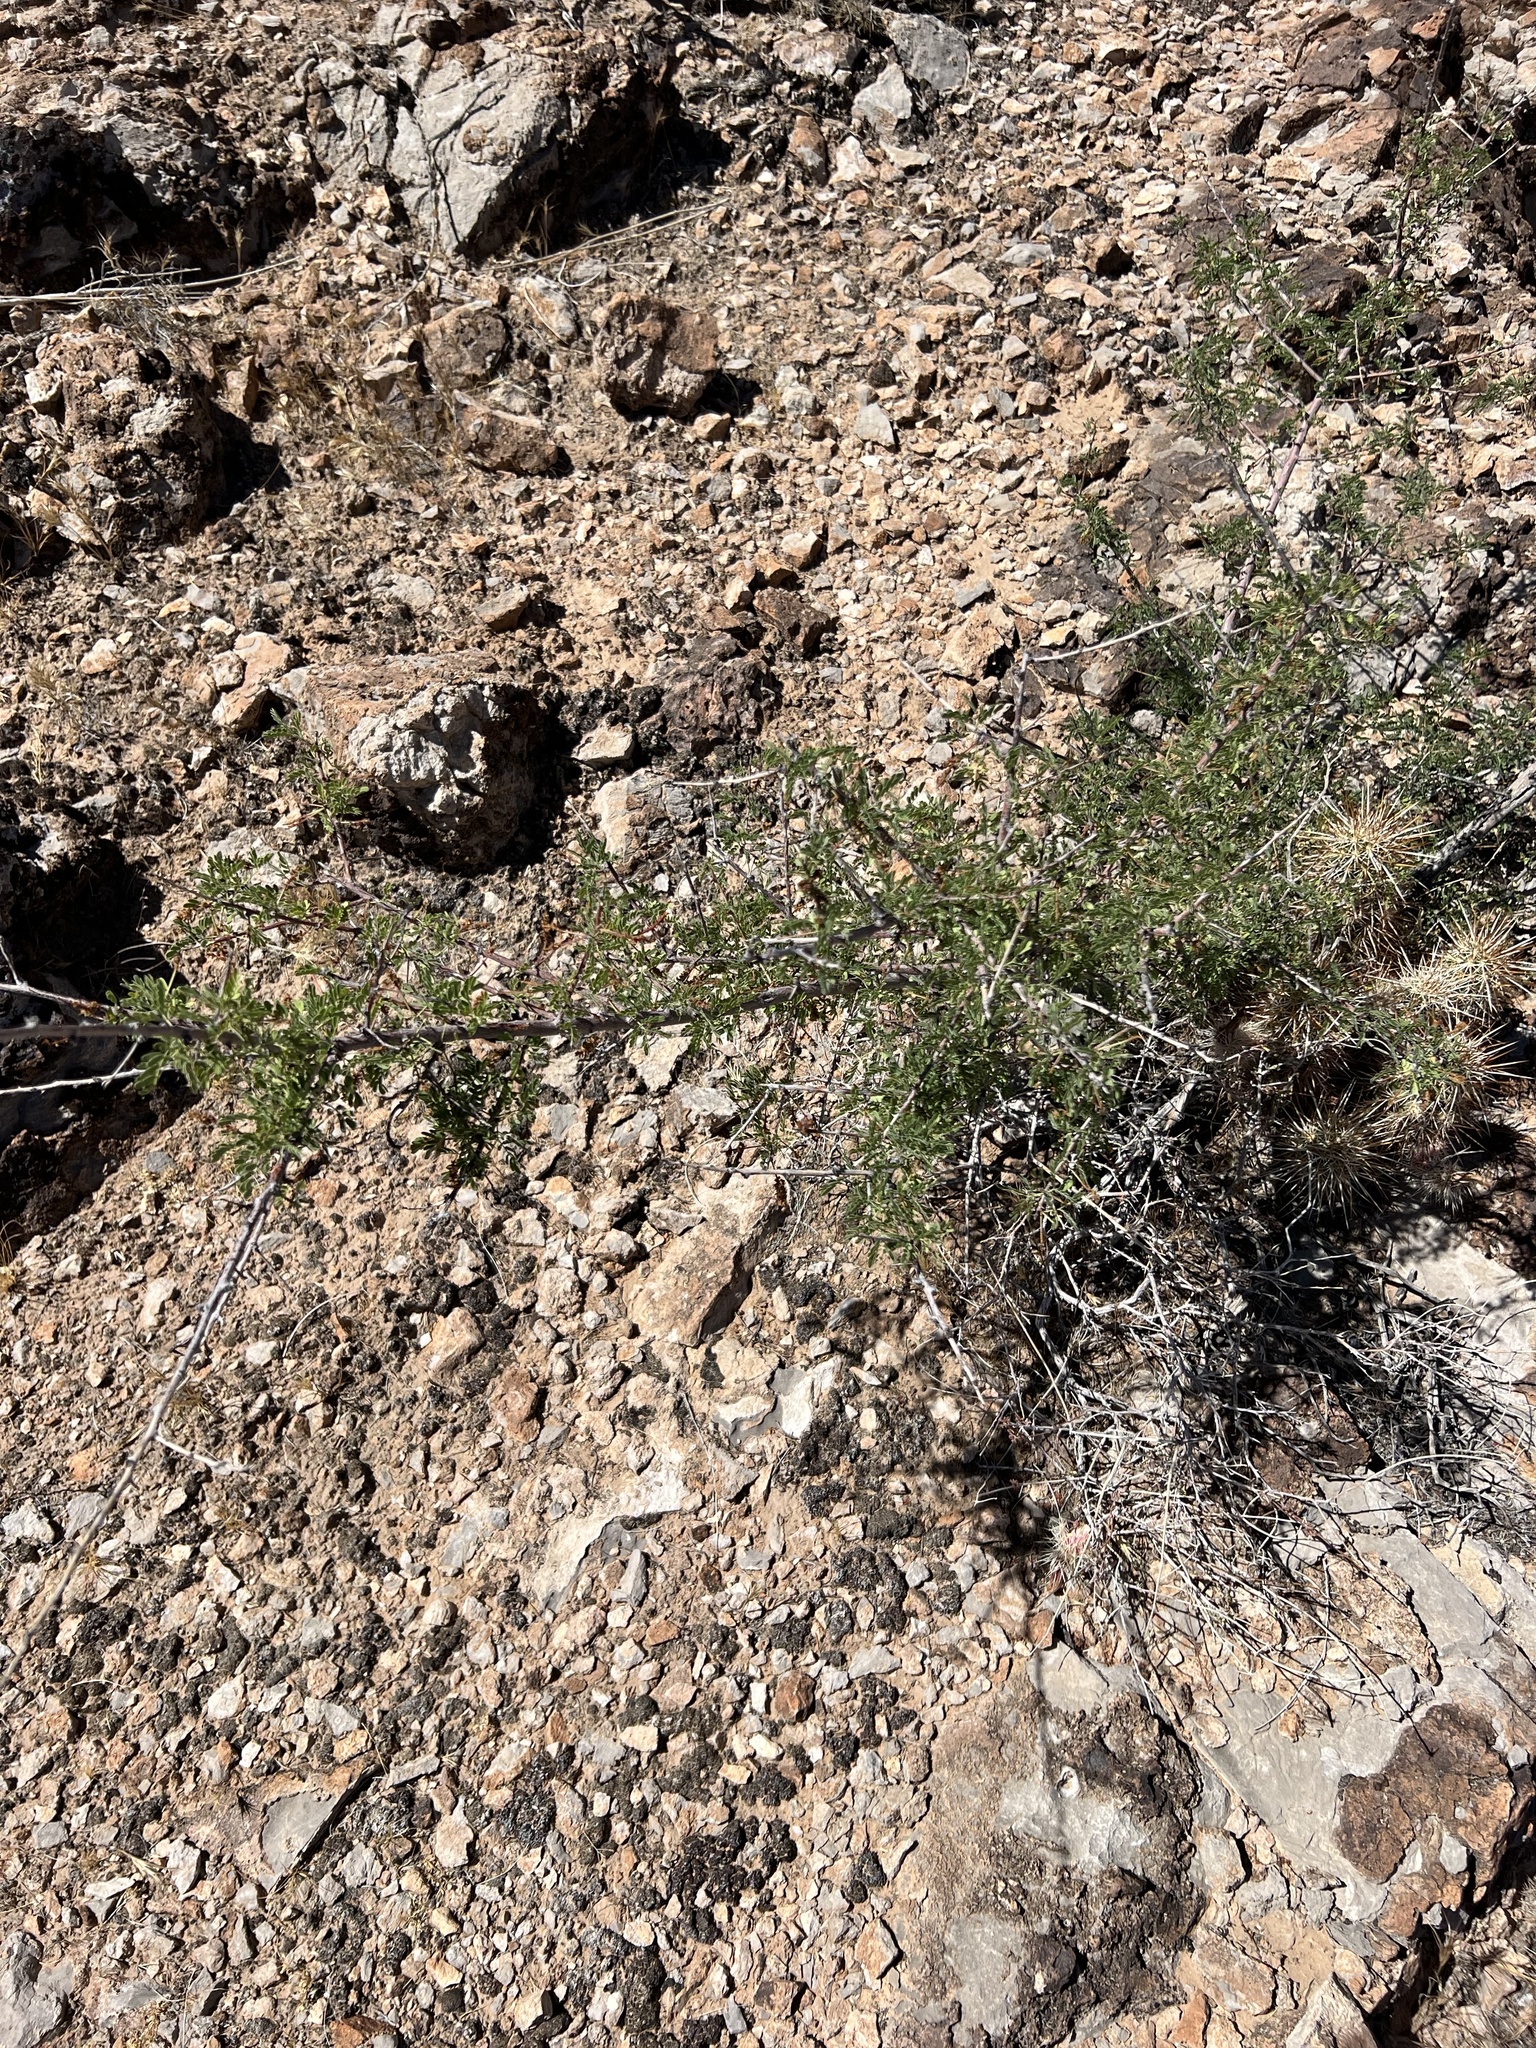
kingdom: Plantae
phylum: Tracheophyta
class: Magnoliopsida
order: Fabales
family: Fabaceae
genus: Senegalia
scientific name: Senegalia greggii
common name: Texas-mimosa
